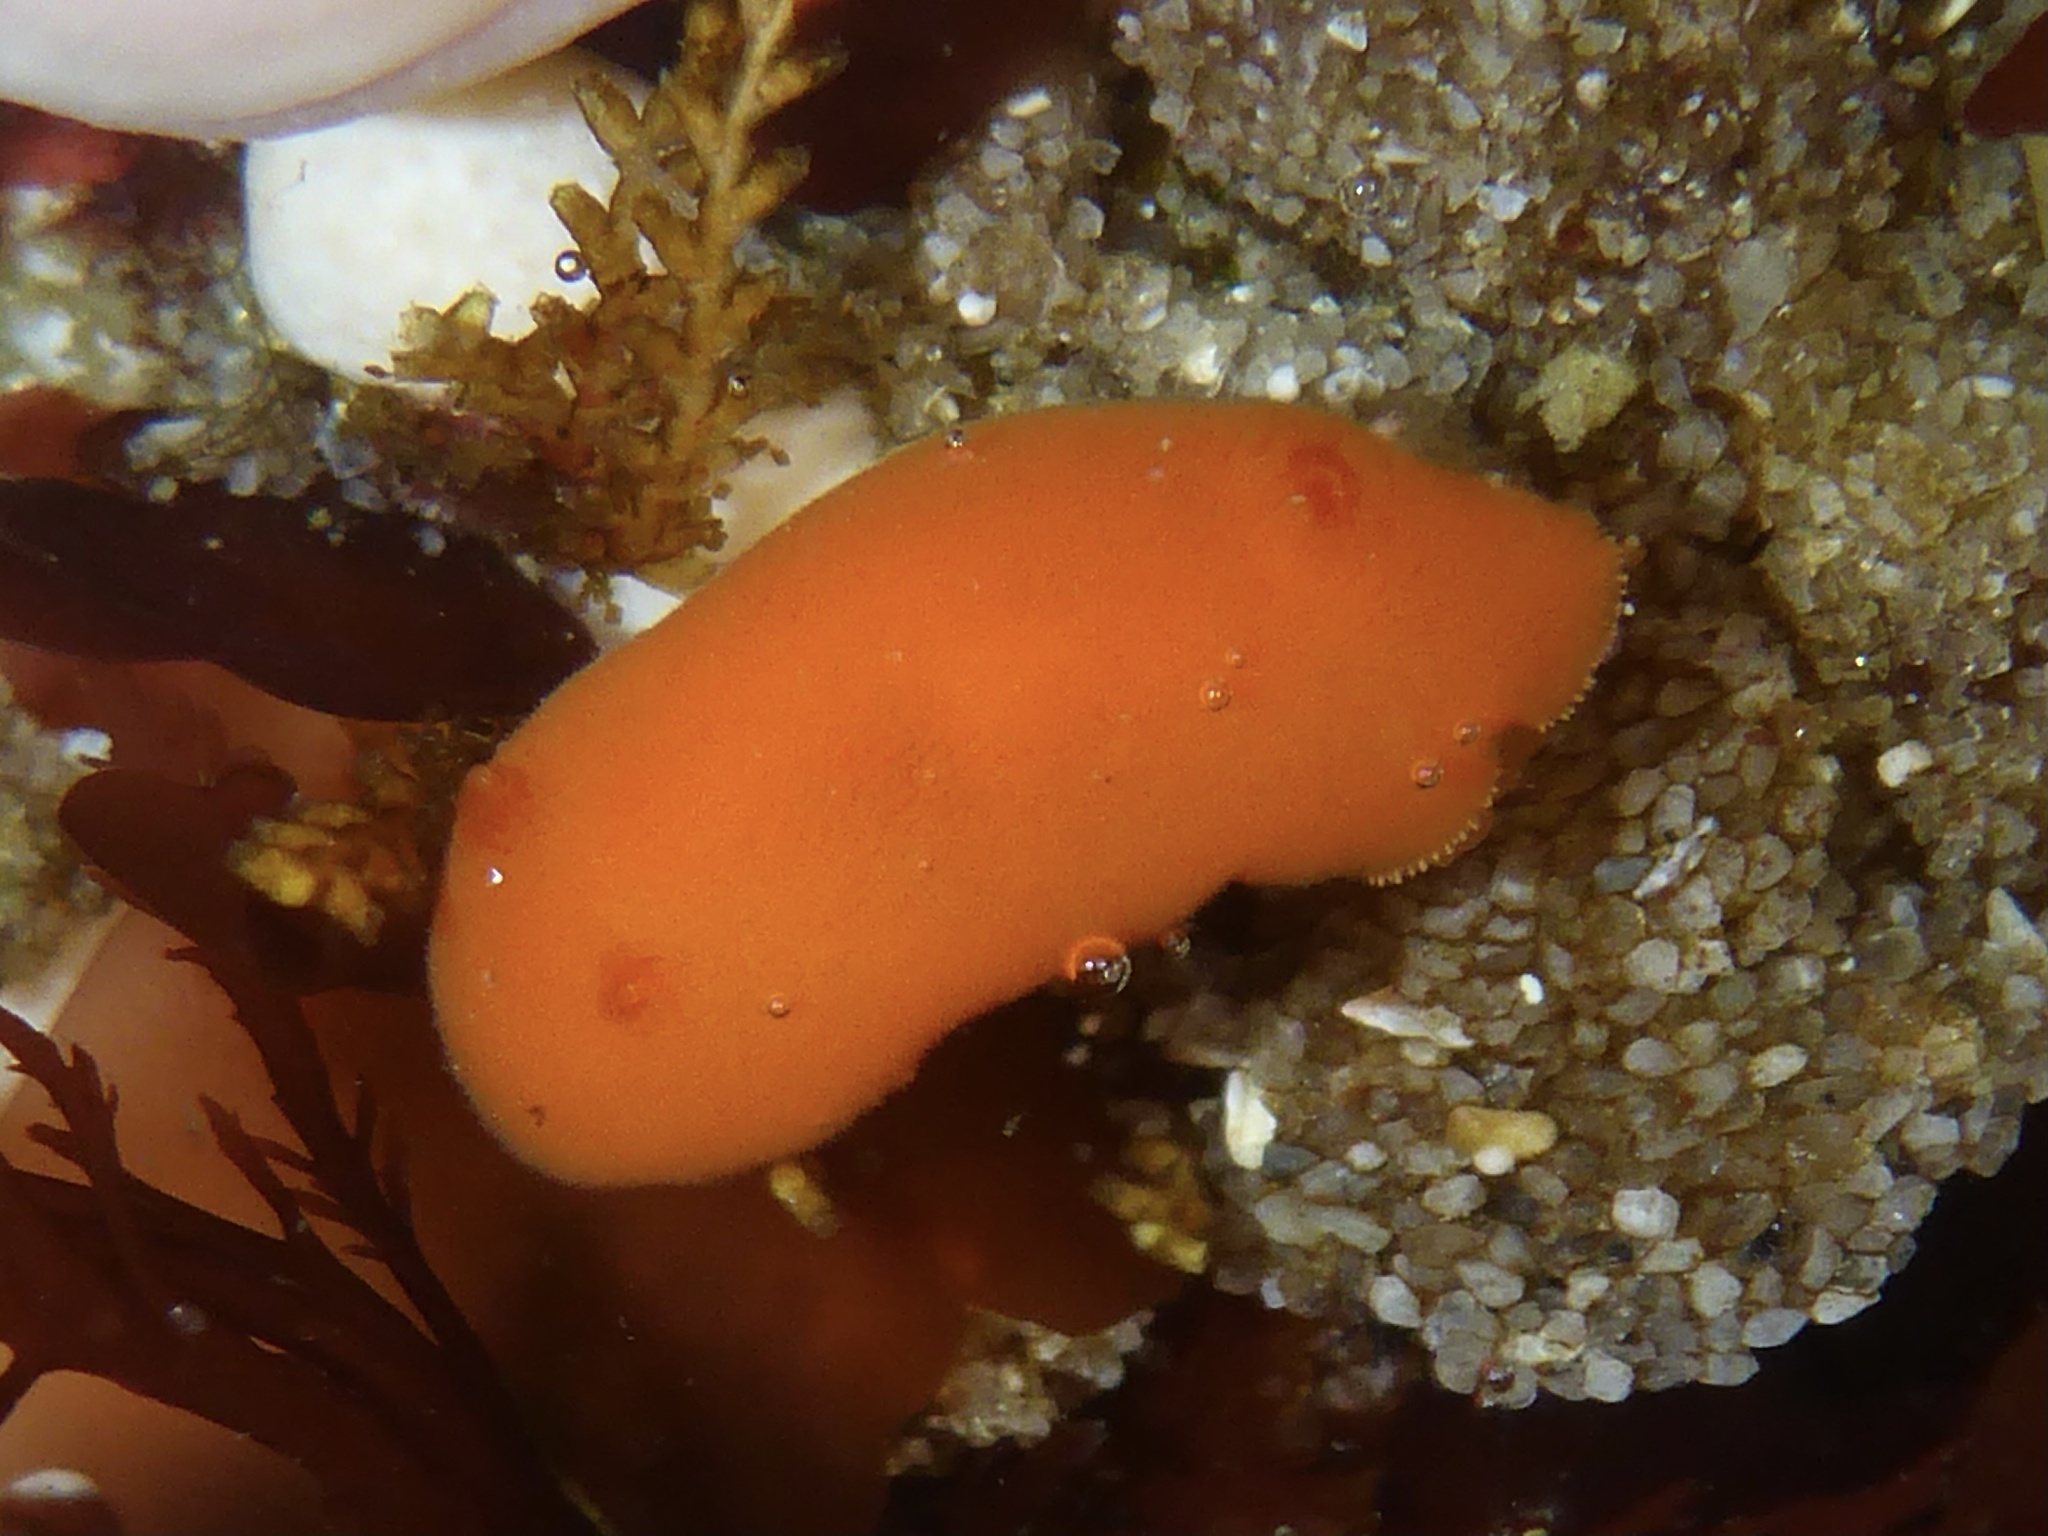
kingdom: Animalia
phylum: Mollusca
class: Gastropoda
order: Nudibranchia
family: Discodorididae
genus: Rostanga
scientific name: Rostanga pulchra
